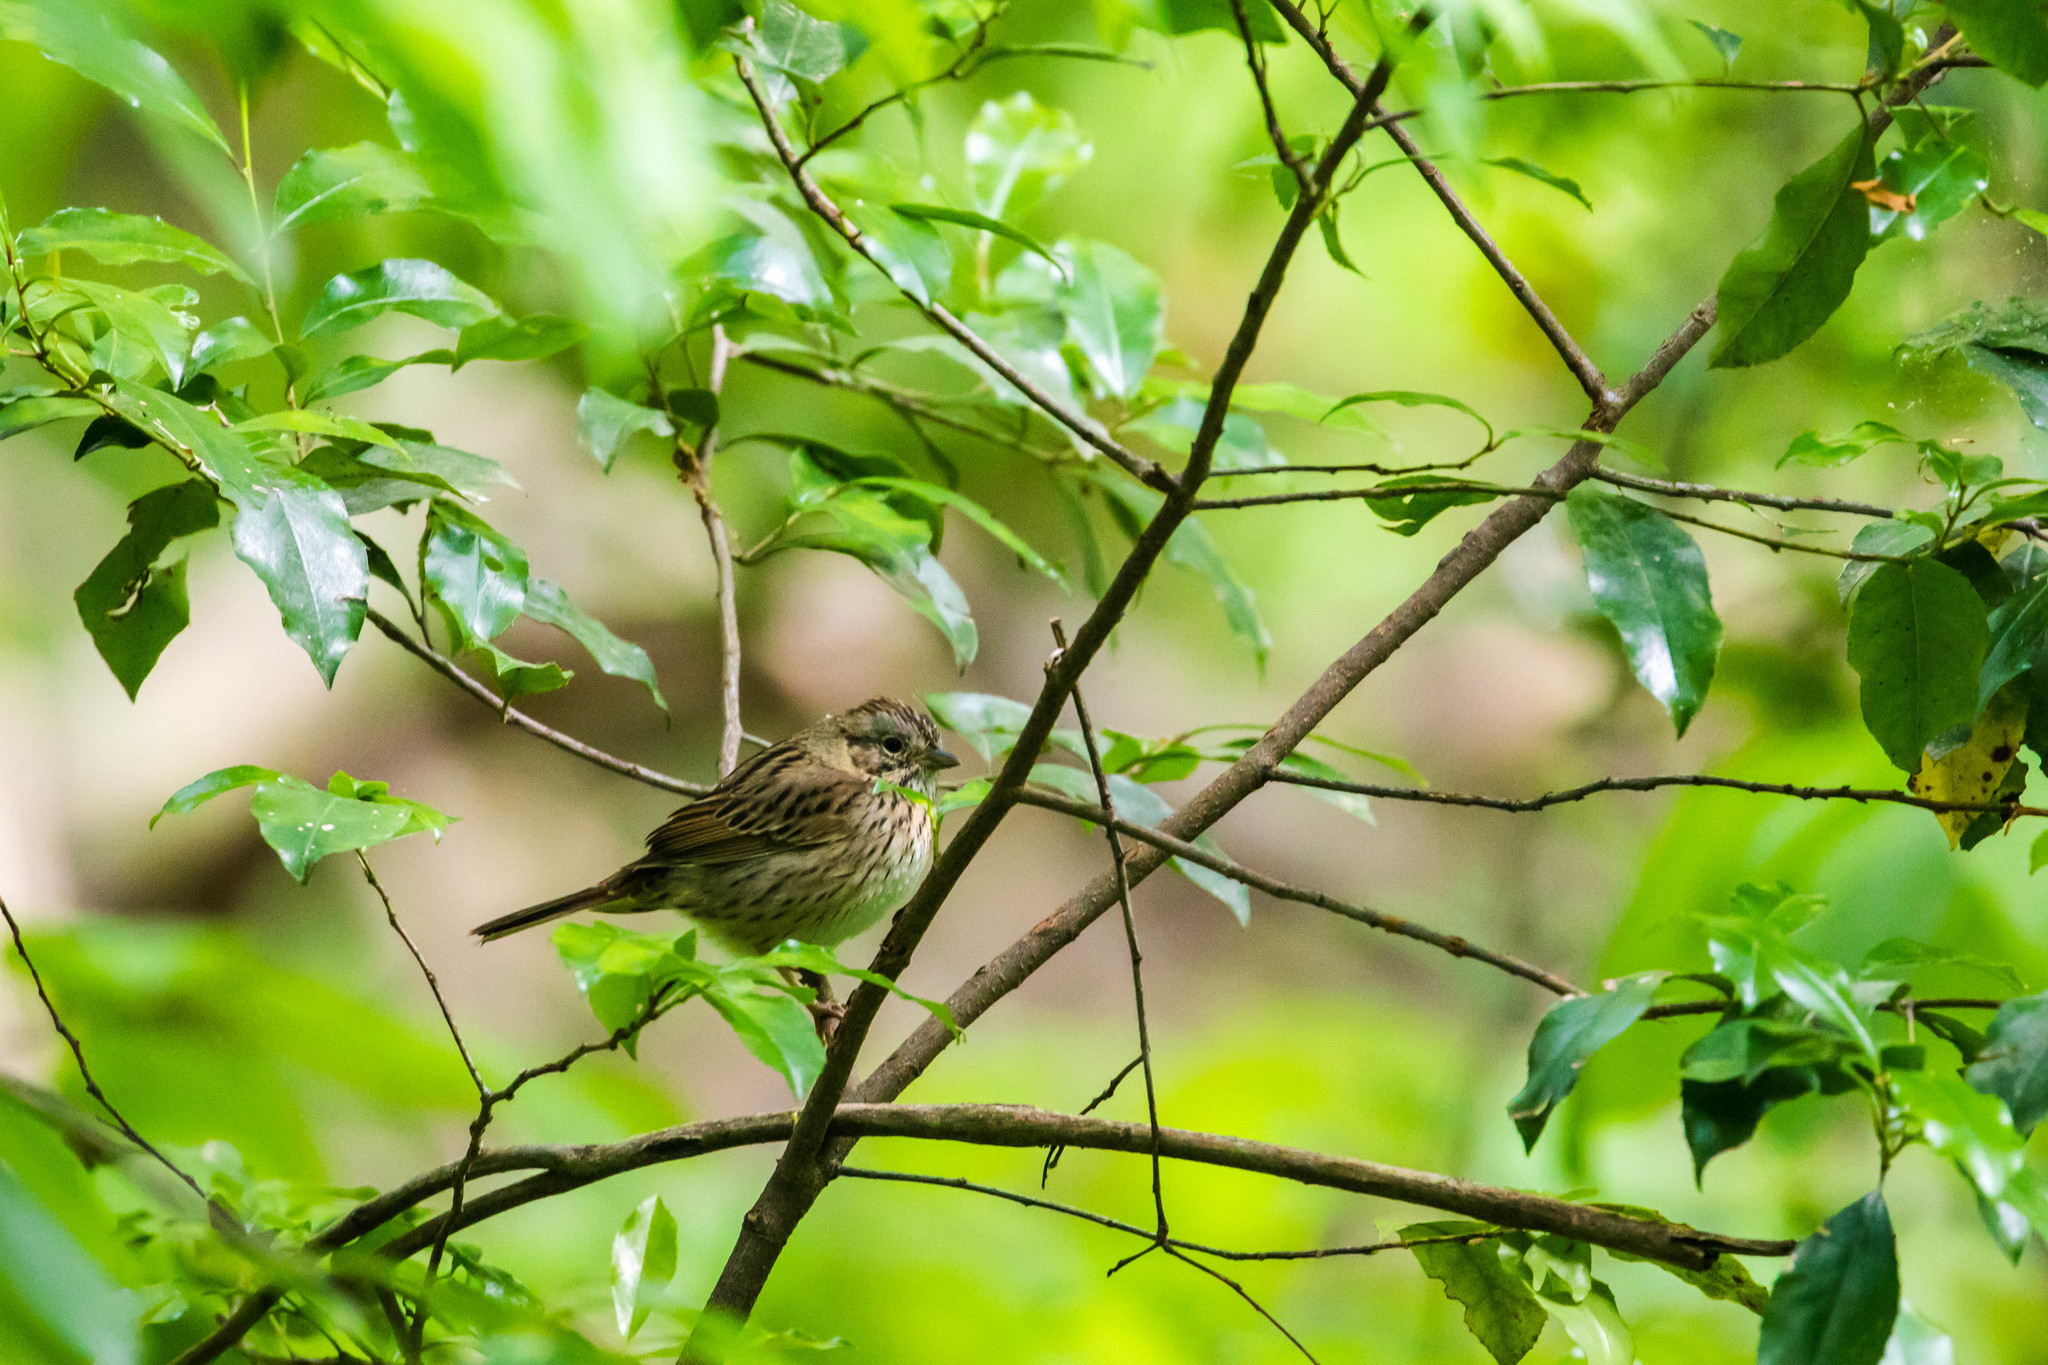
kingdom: Animalia
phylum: Chordata
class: Aves
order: Passeriformes
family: Passerellidae
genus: Melospiza
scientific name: Melospiza lincolnii
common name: Lincoln's sparrow
